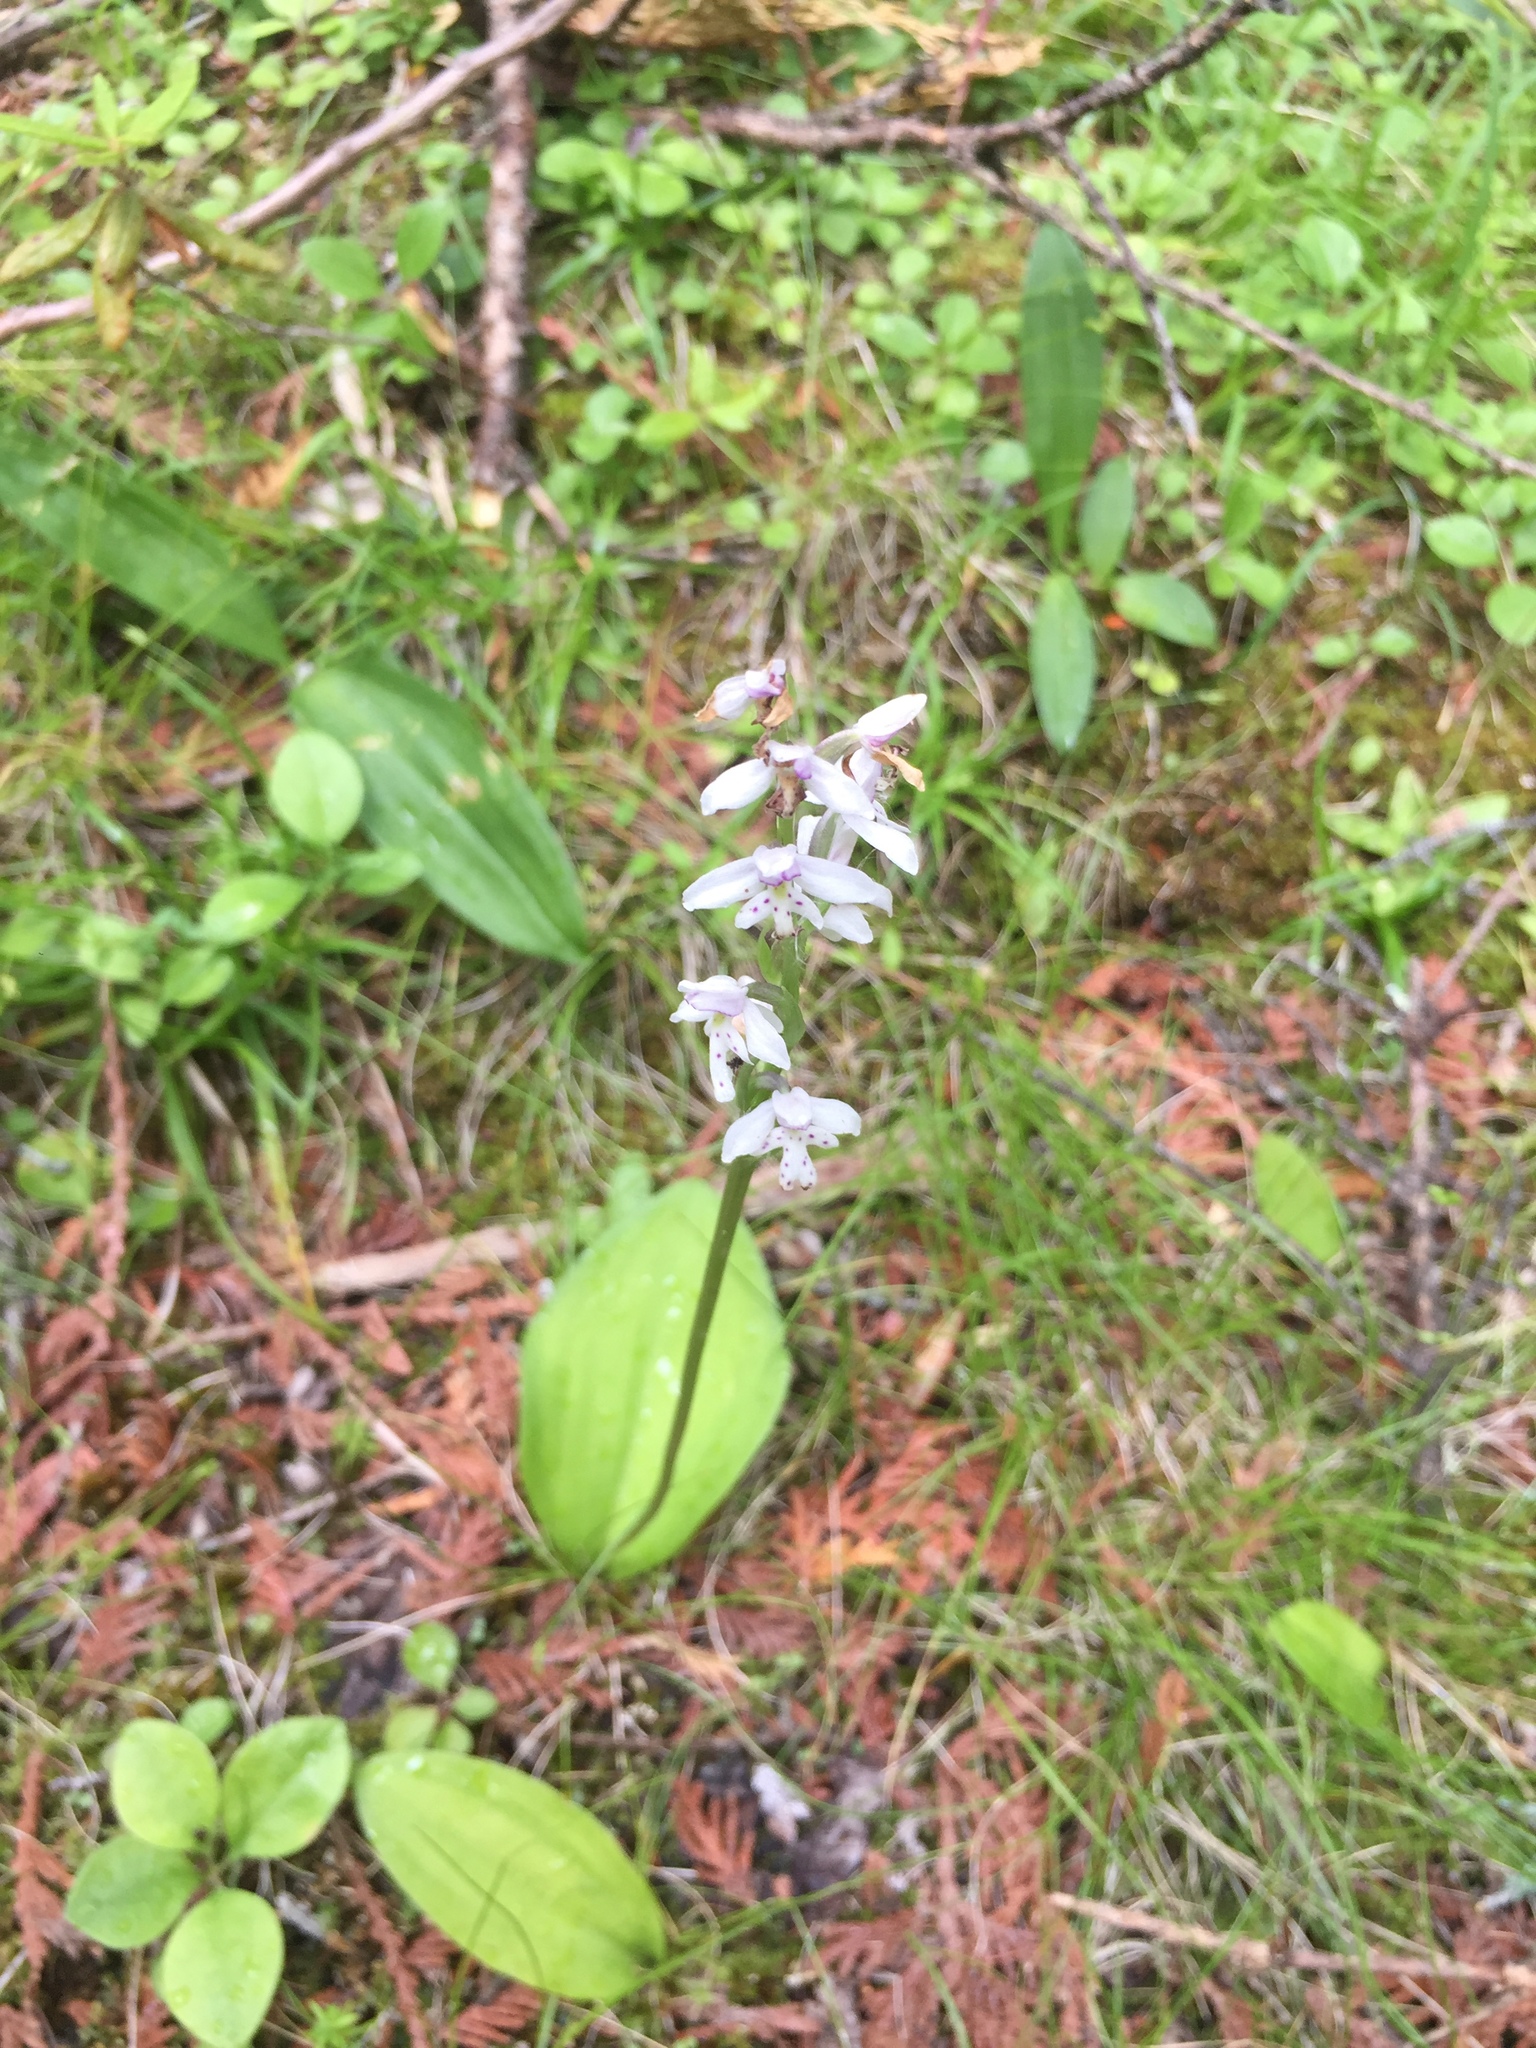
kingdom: Plantae
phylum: Tracheophyta
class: Liliopsida
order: Asparagales
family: Orchidaceae
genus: Galearis
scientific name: Galearis rotundifolia
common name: One-leaved orchis
